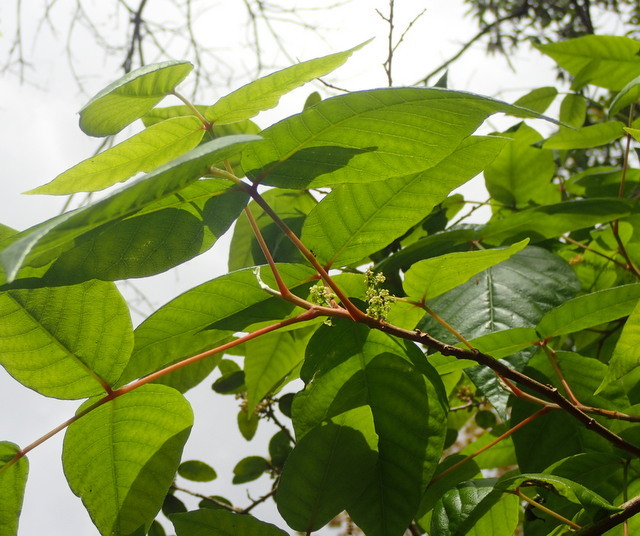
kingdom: Plantae
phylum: Tracheophyta
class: Magnoliopsida
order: Sapindales
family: Anacardiaceae
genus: Toxicodendron
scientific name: Toxicodendron radicans
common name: Poison ivy
